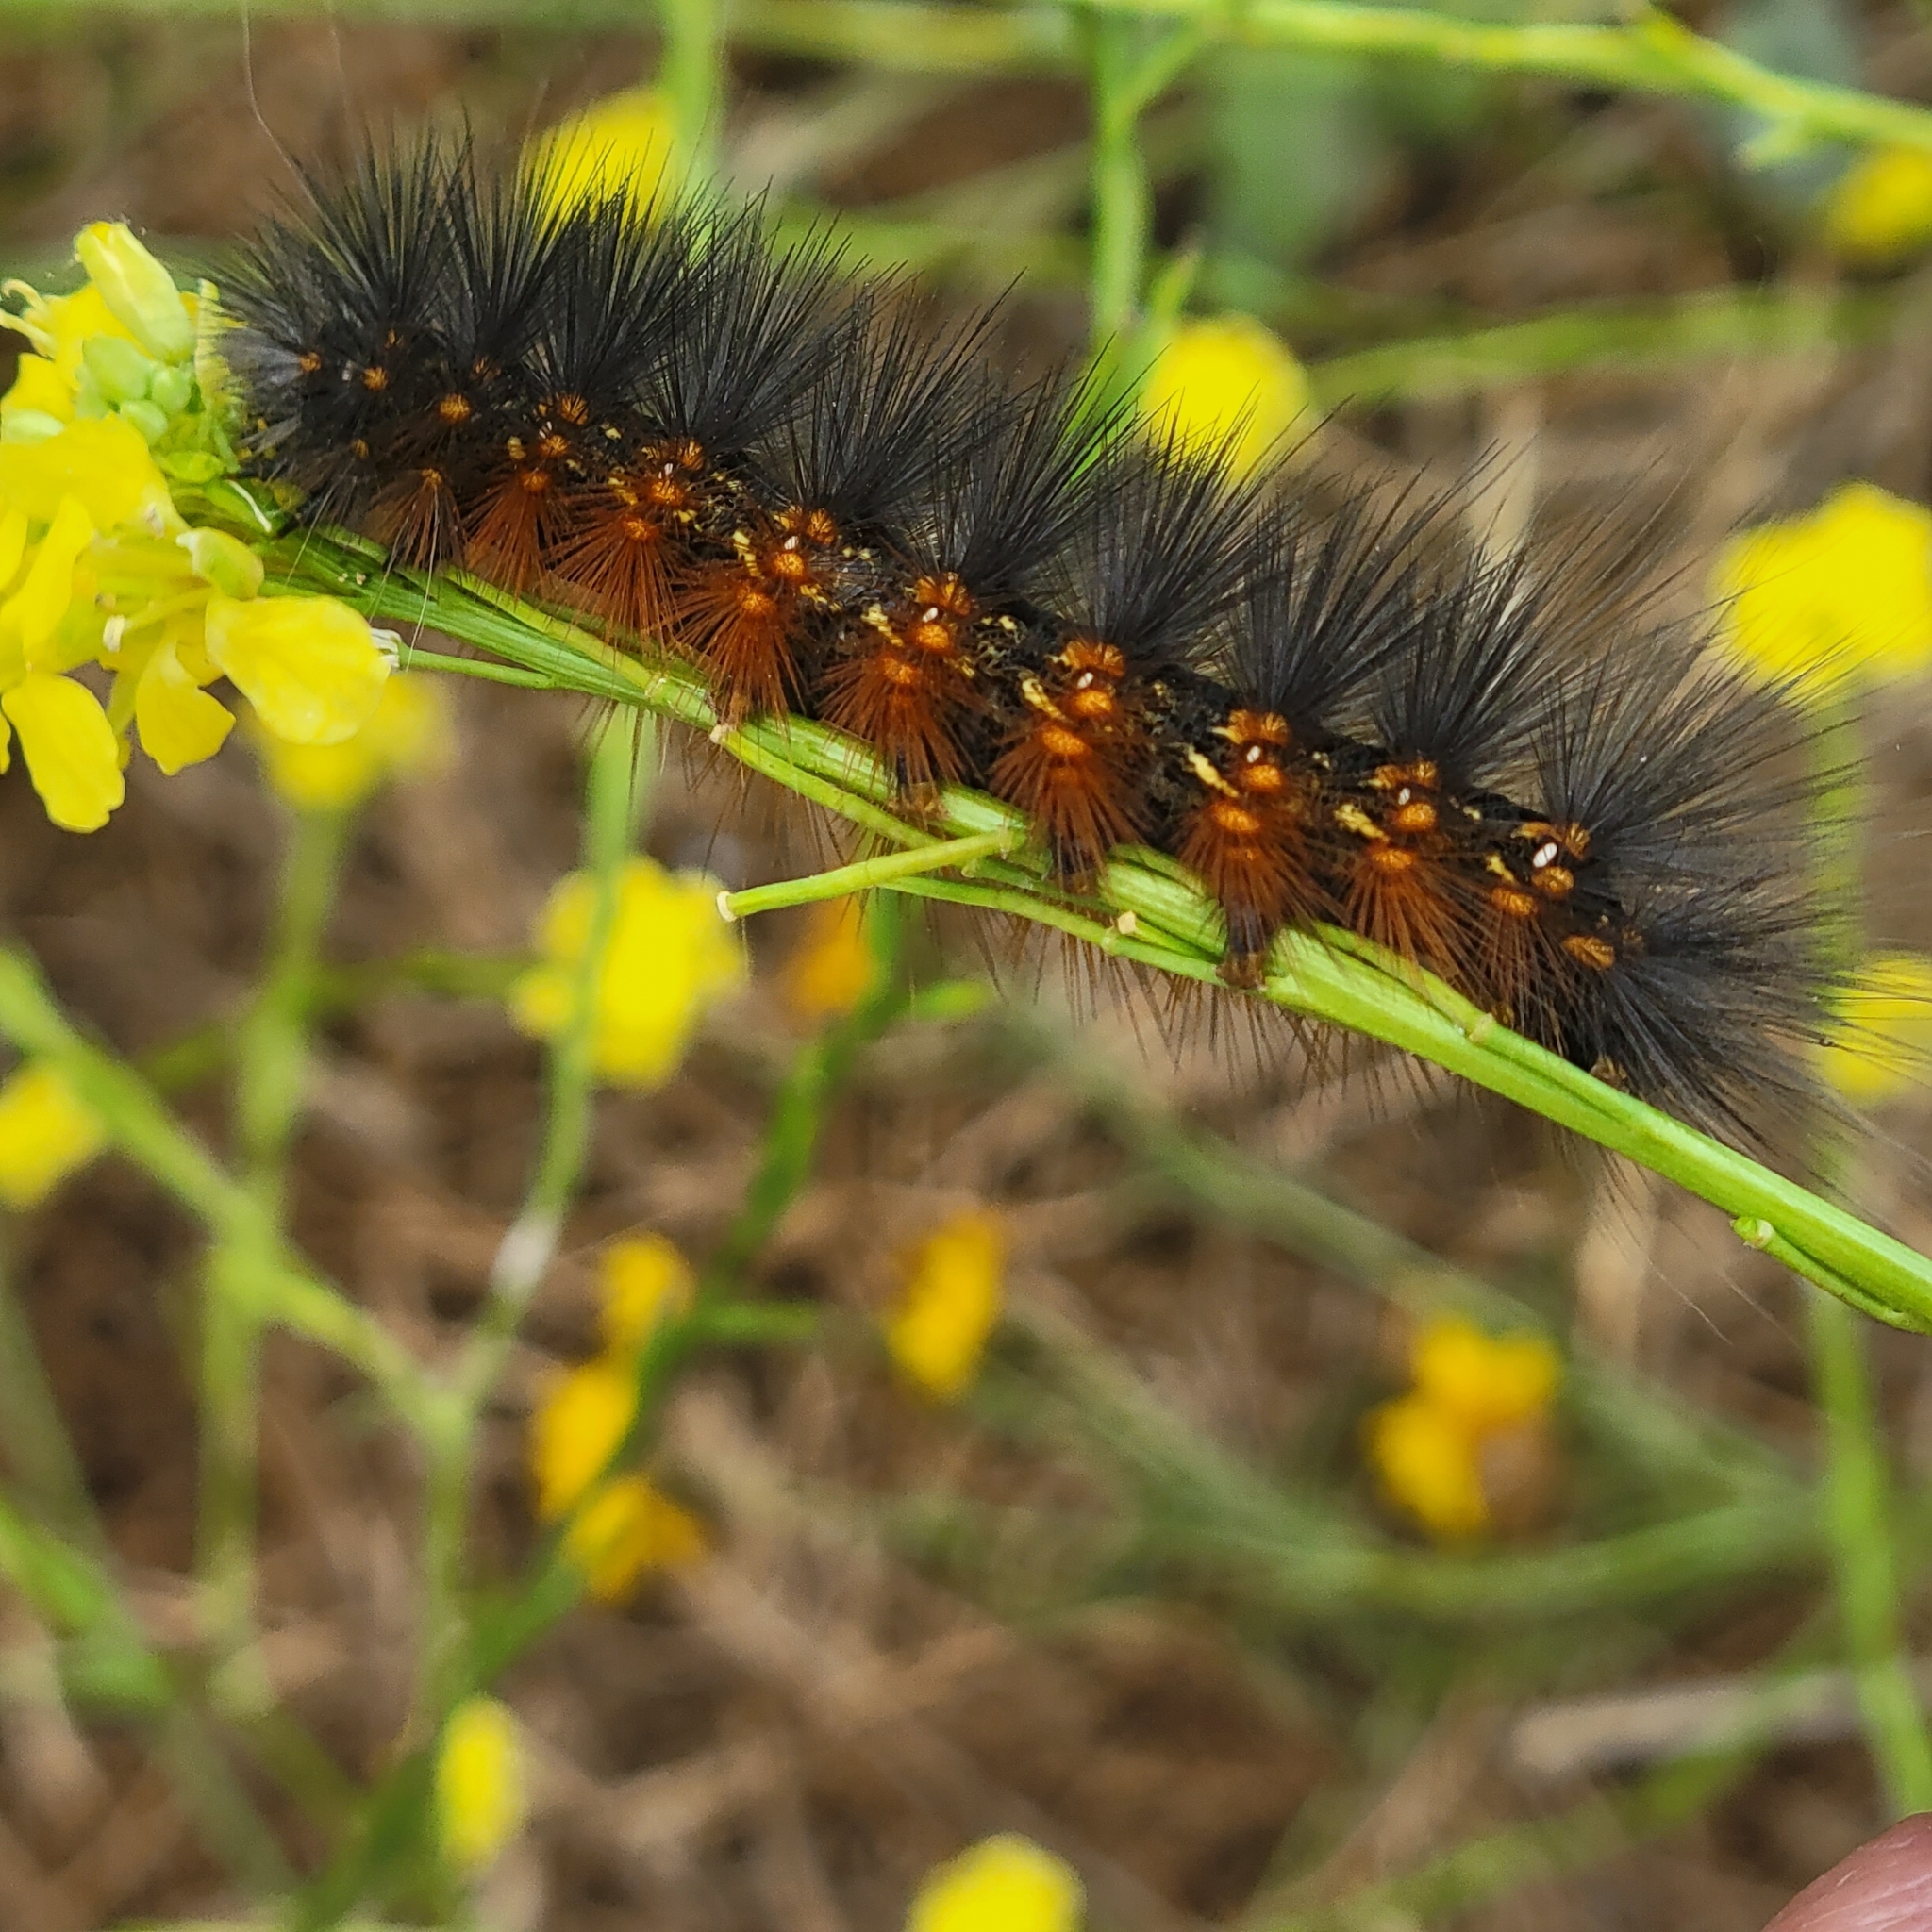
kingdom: Animalia
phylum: Arthropoda
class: Insecta
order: Lepidoptera
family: Erebidae
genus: Estigmene
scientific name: Estigmene acrea
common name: Salt marsh moth
